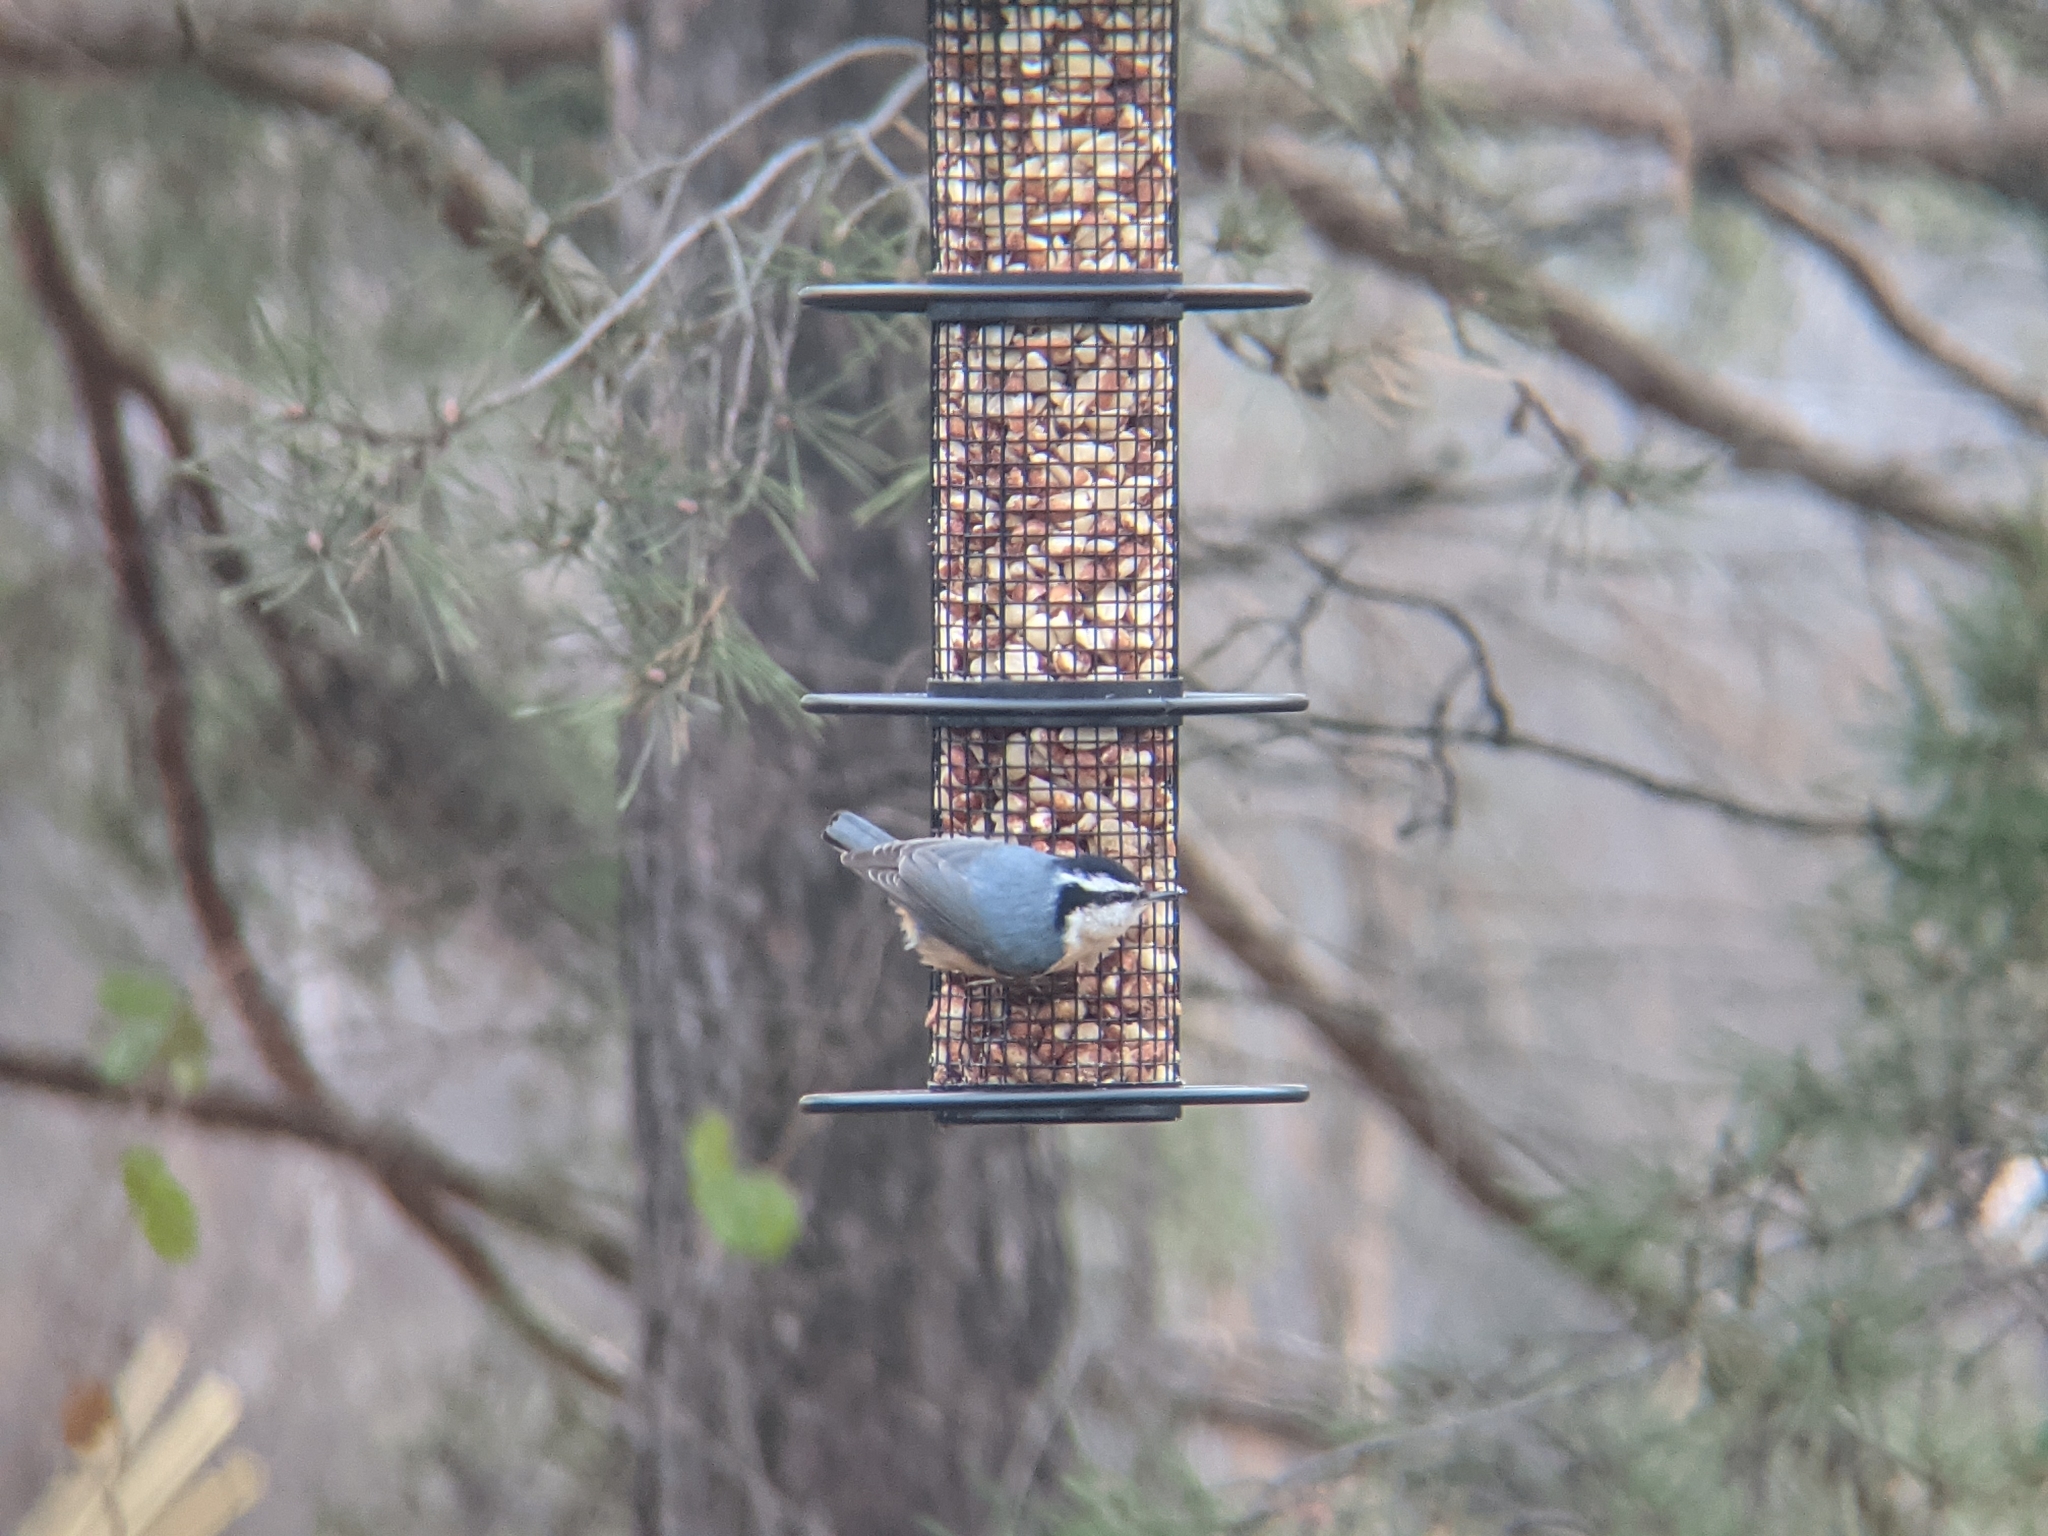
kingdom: Animalia
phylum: Chordata
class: Aves
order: Passeriformes
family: Sittidae
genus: Sitta
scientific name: Sitta canadensis
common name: Red-breasted nuthatch
